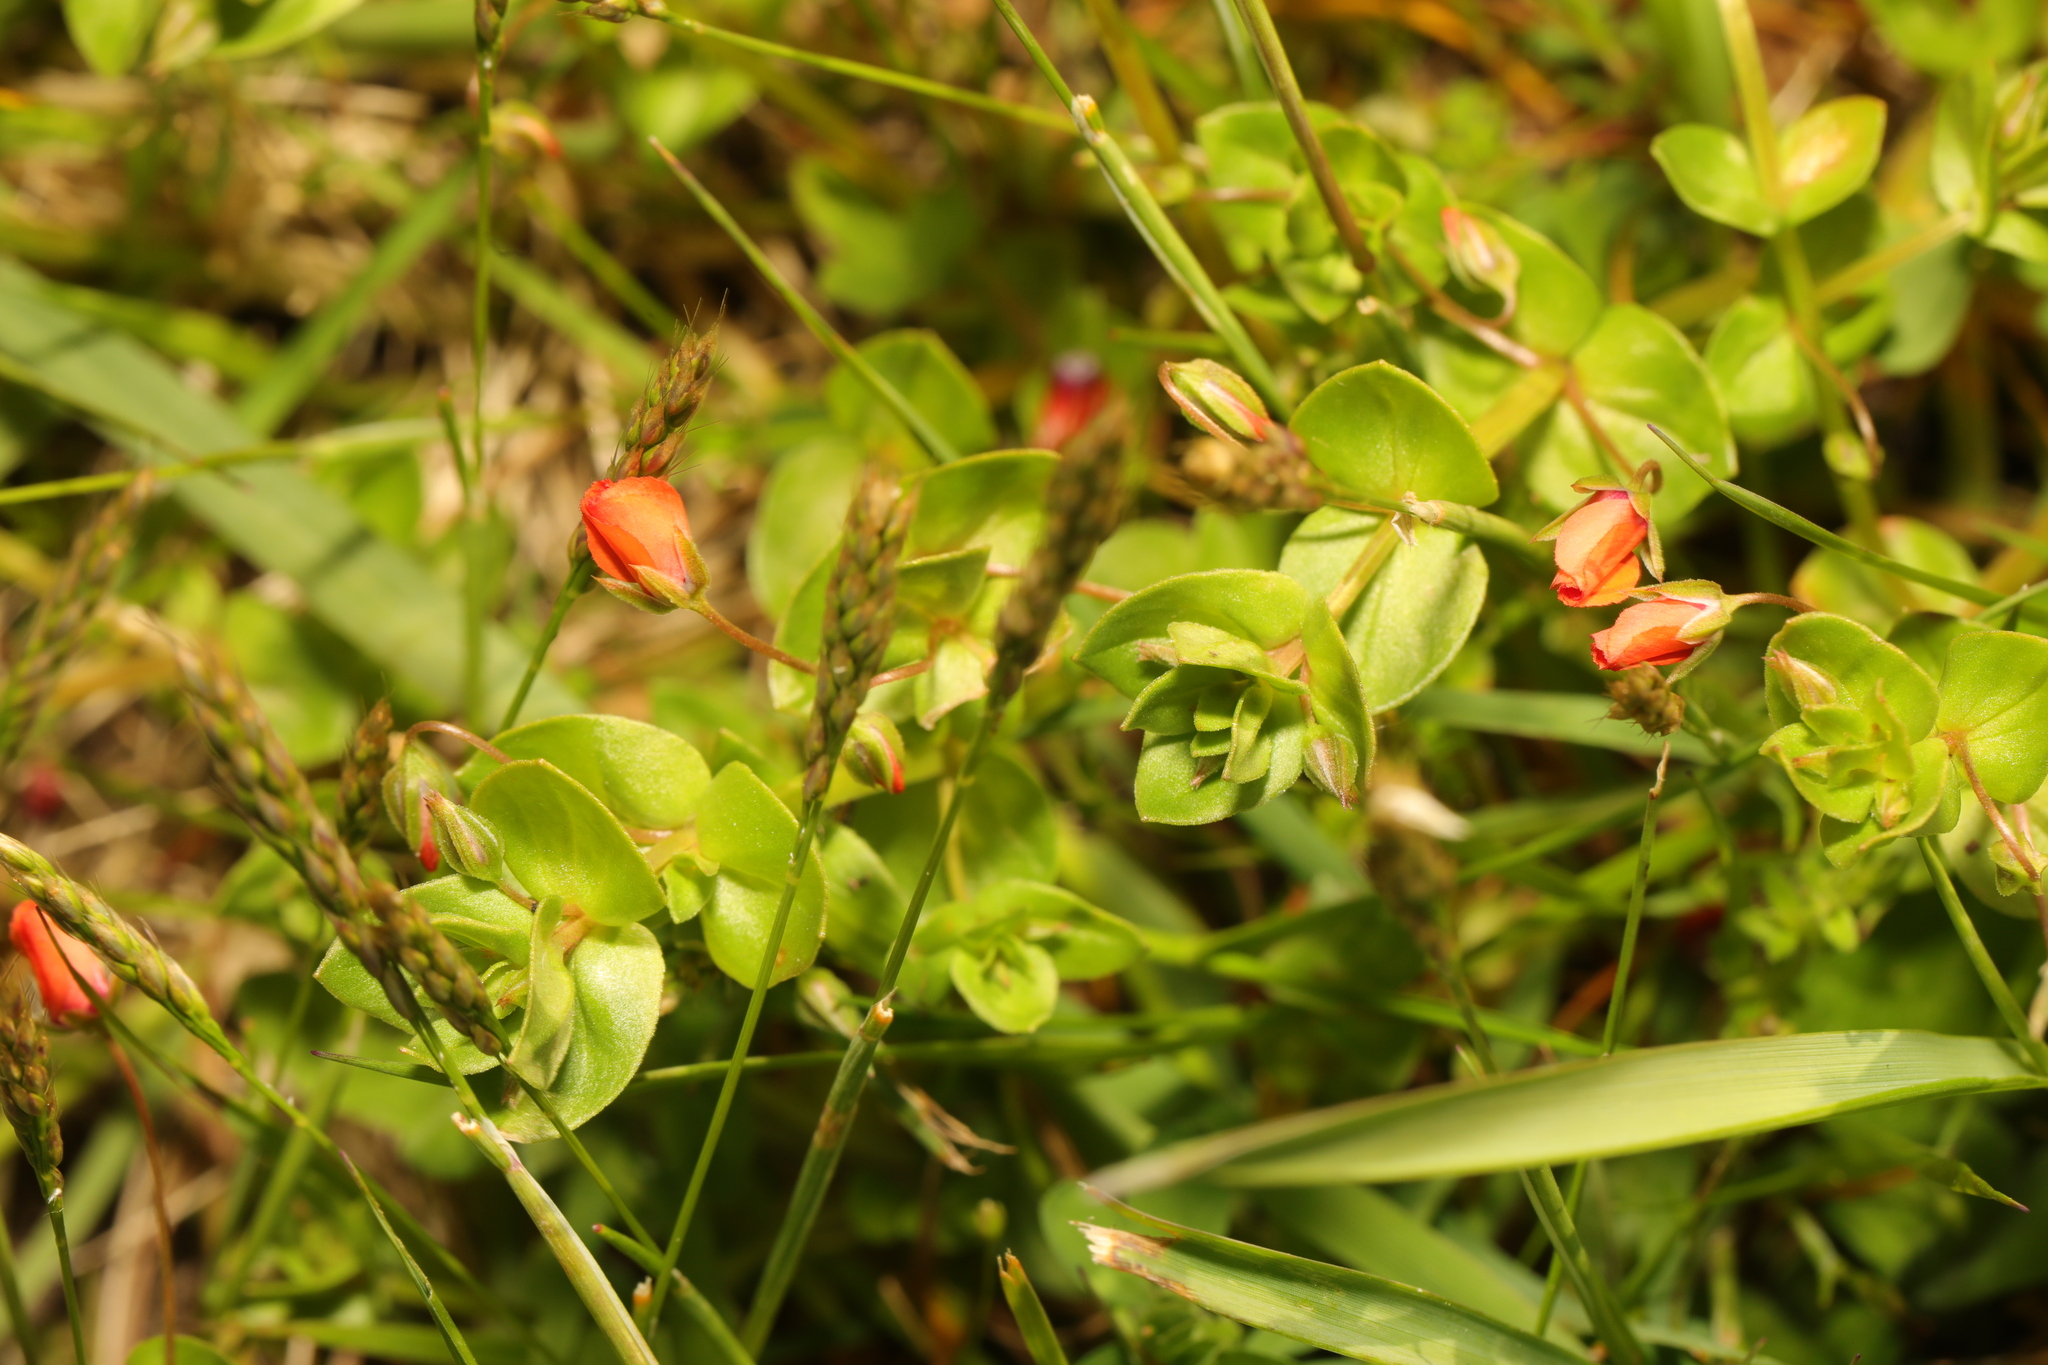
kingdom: Plantae
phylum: Tracheophyta
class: Magnoliopsida
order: Ericales
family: Primulaceae
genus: Lysimachia
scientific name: Lysimachia arvensis
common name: Scarlet pimpernel
